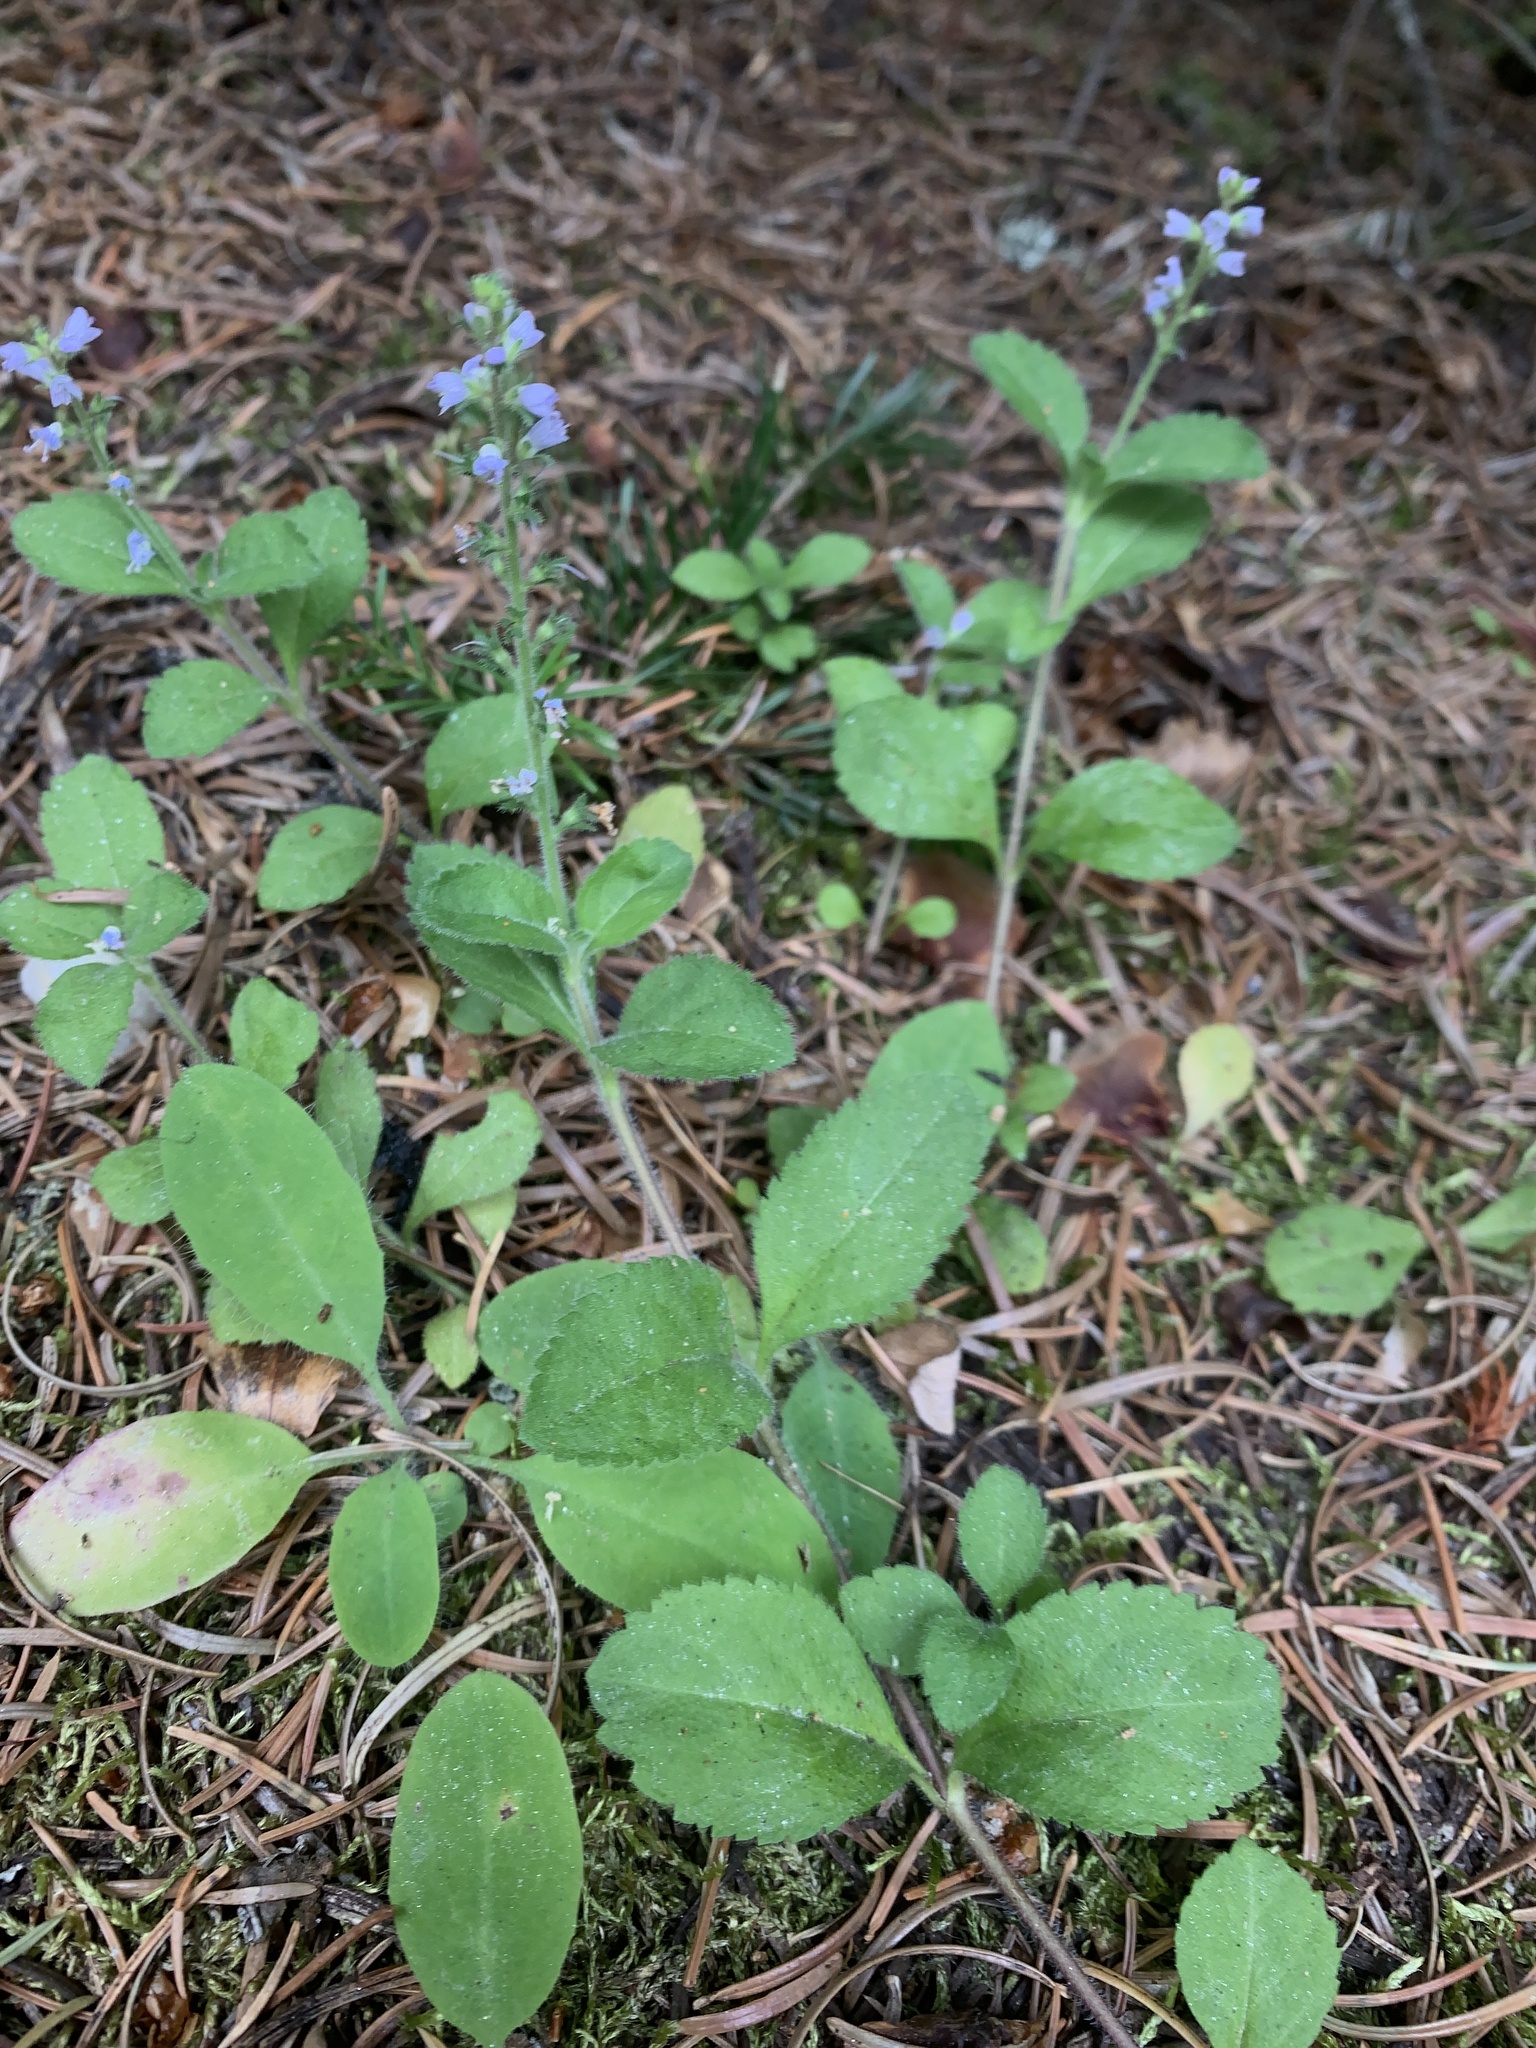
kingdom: Plantae
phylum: Tracheophyta
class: Magnoliopsida
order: Lamiales
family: Plantaginaceae
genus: Veronica
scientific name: Veronica officinalis
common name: Common speedwell
